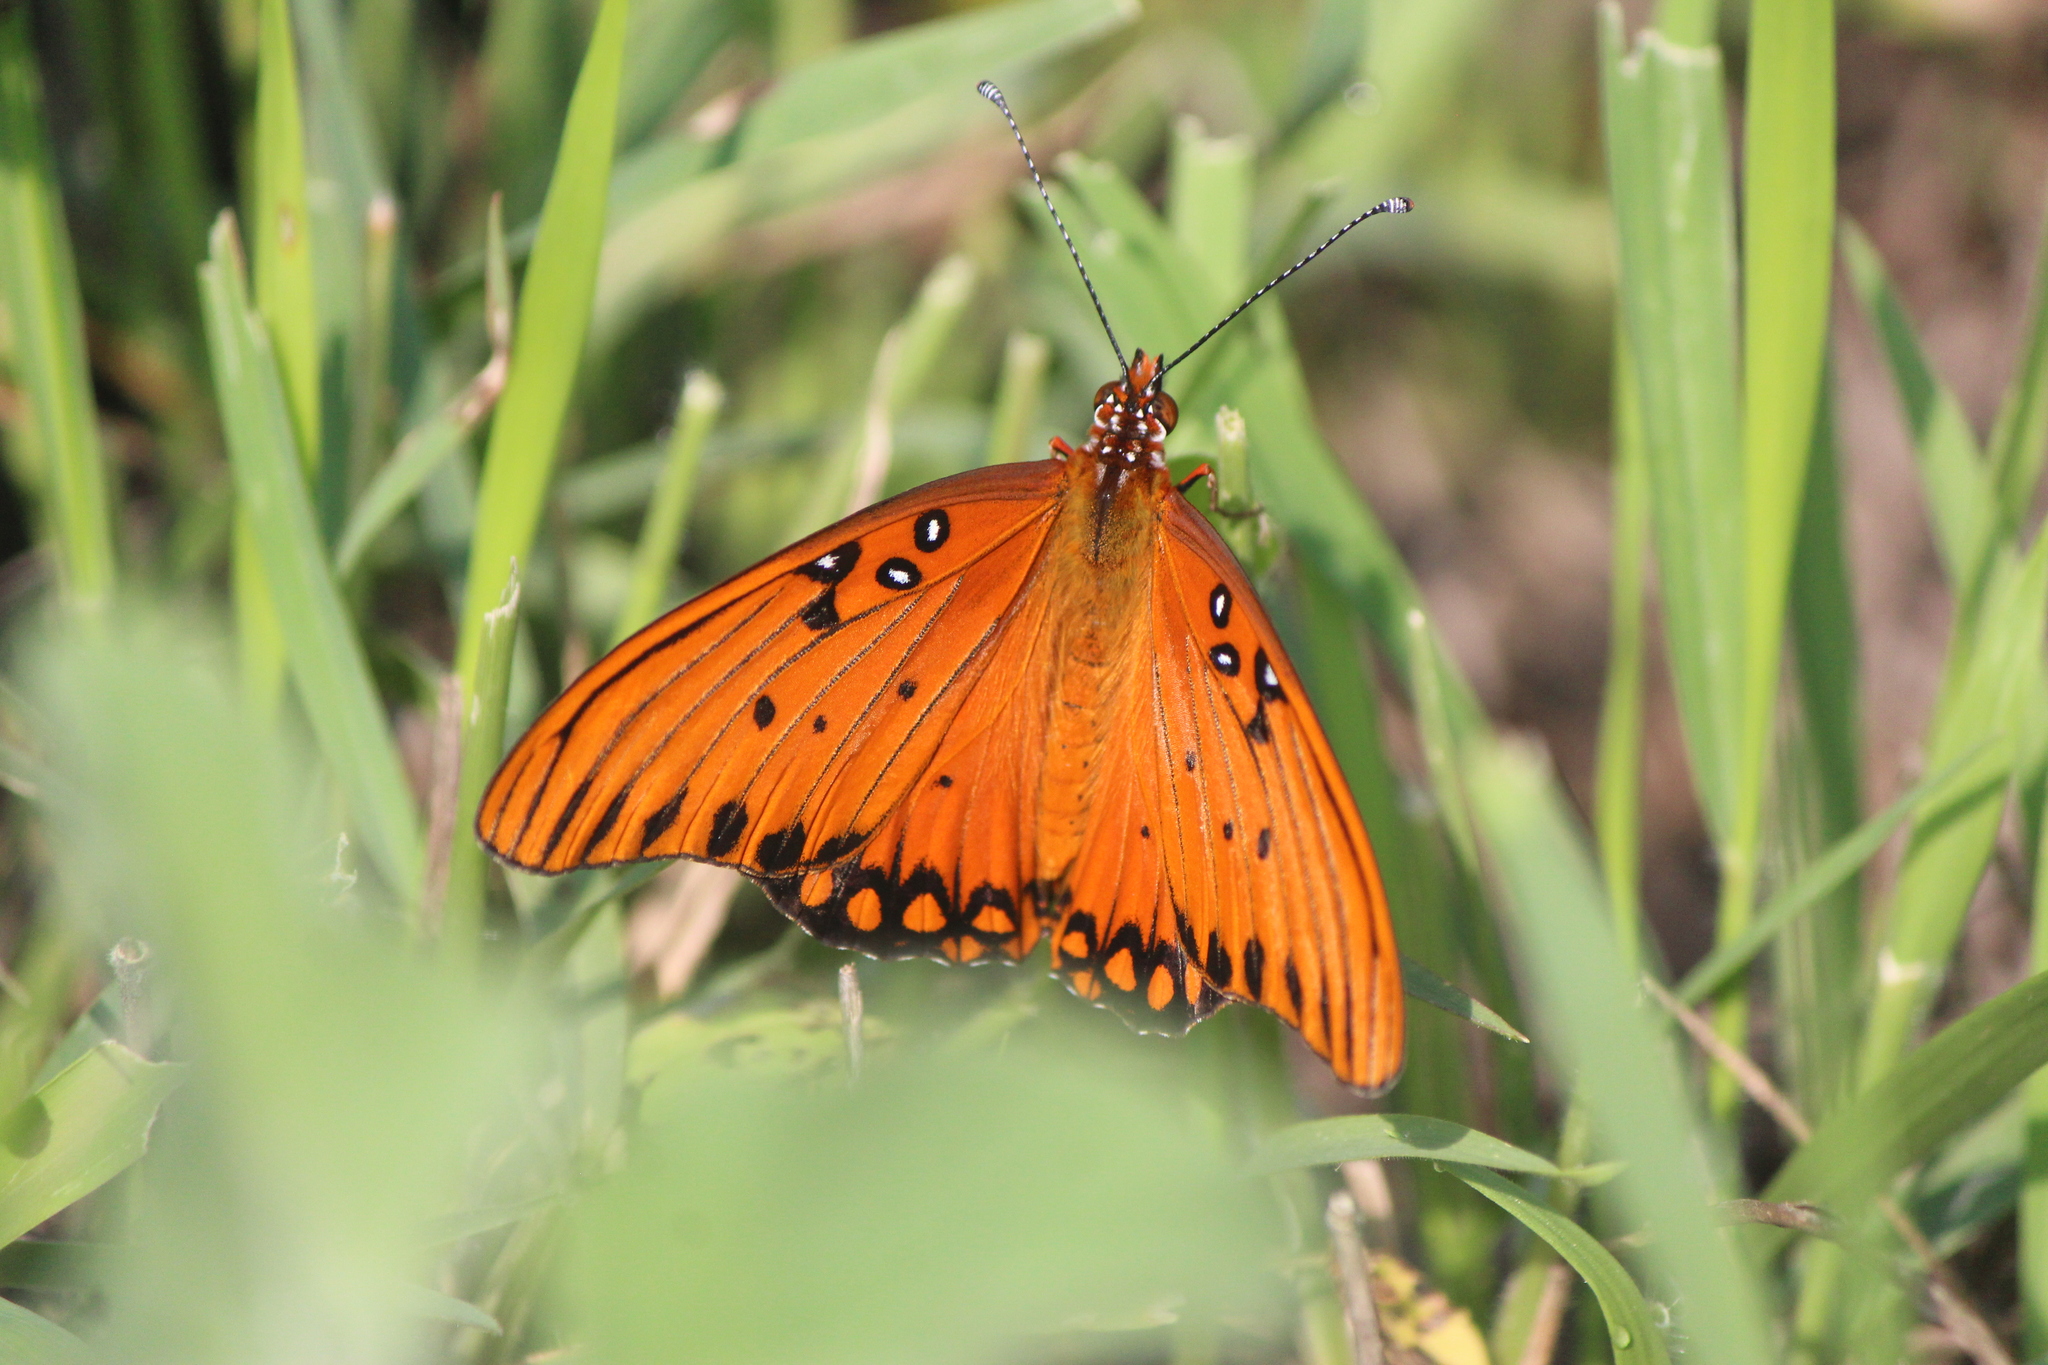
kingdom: Animalia
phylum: Arthropoda
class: Insecta
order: Lepidoptera
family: Nymphalidae
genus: Dione
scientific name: Dione vanillae
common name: Gulf fritillary
